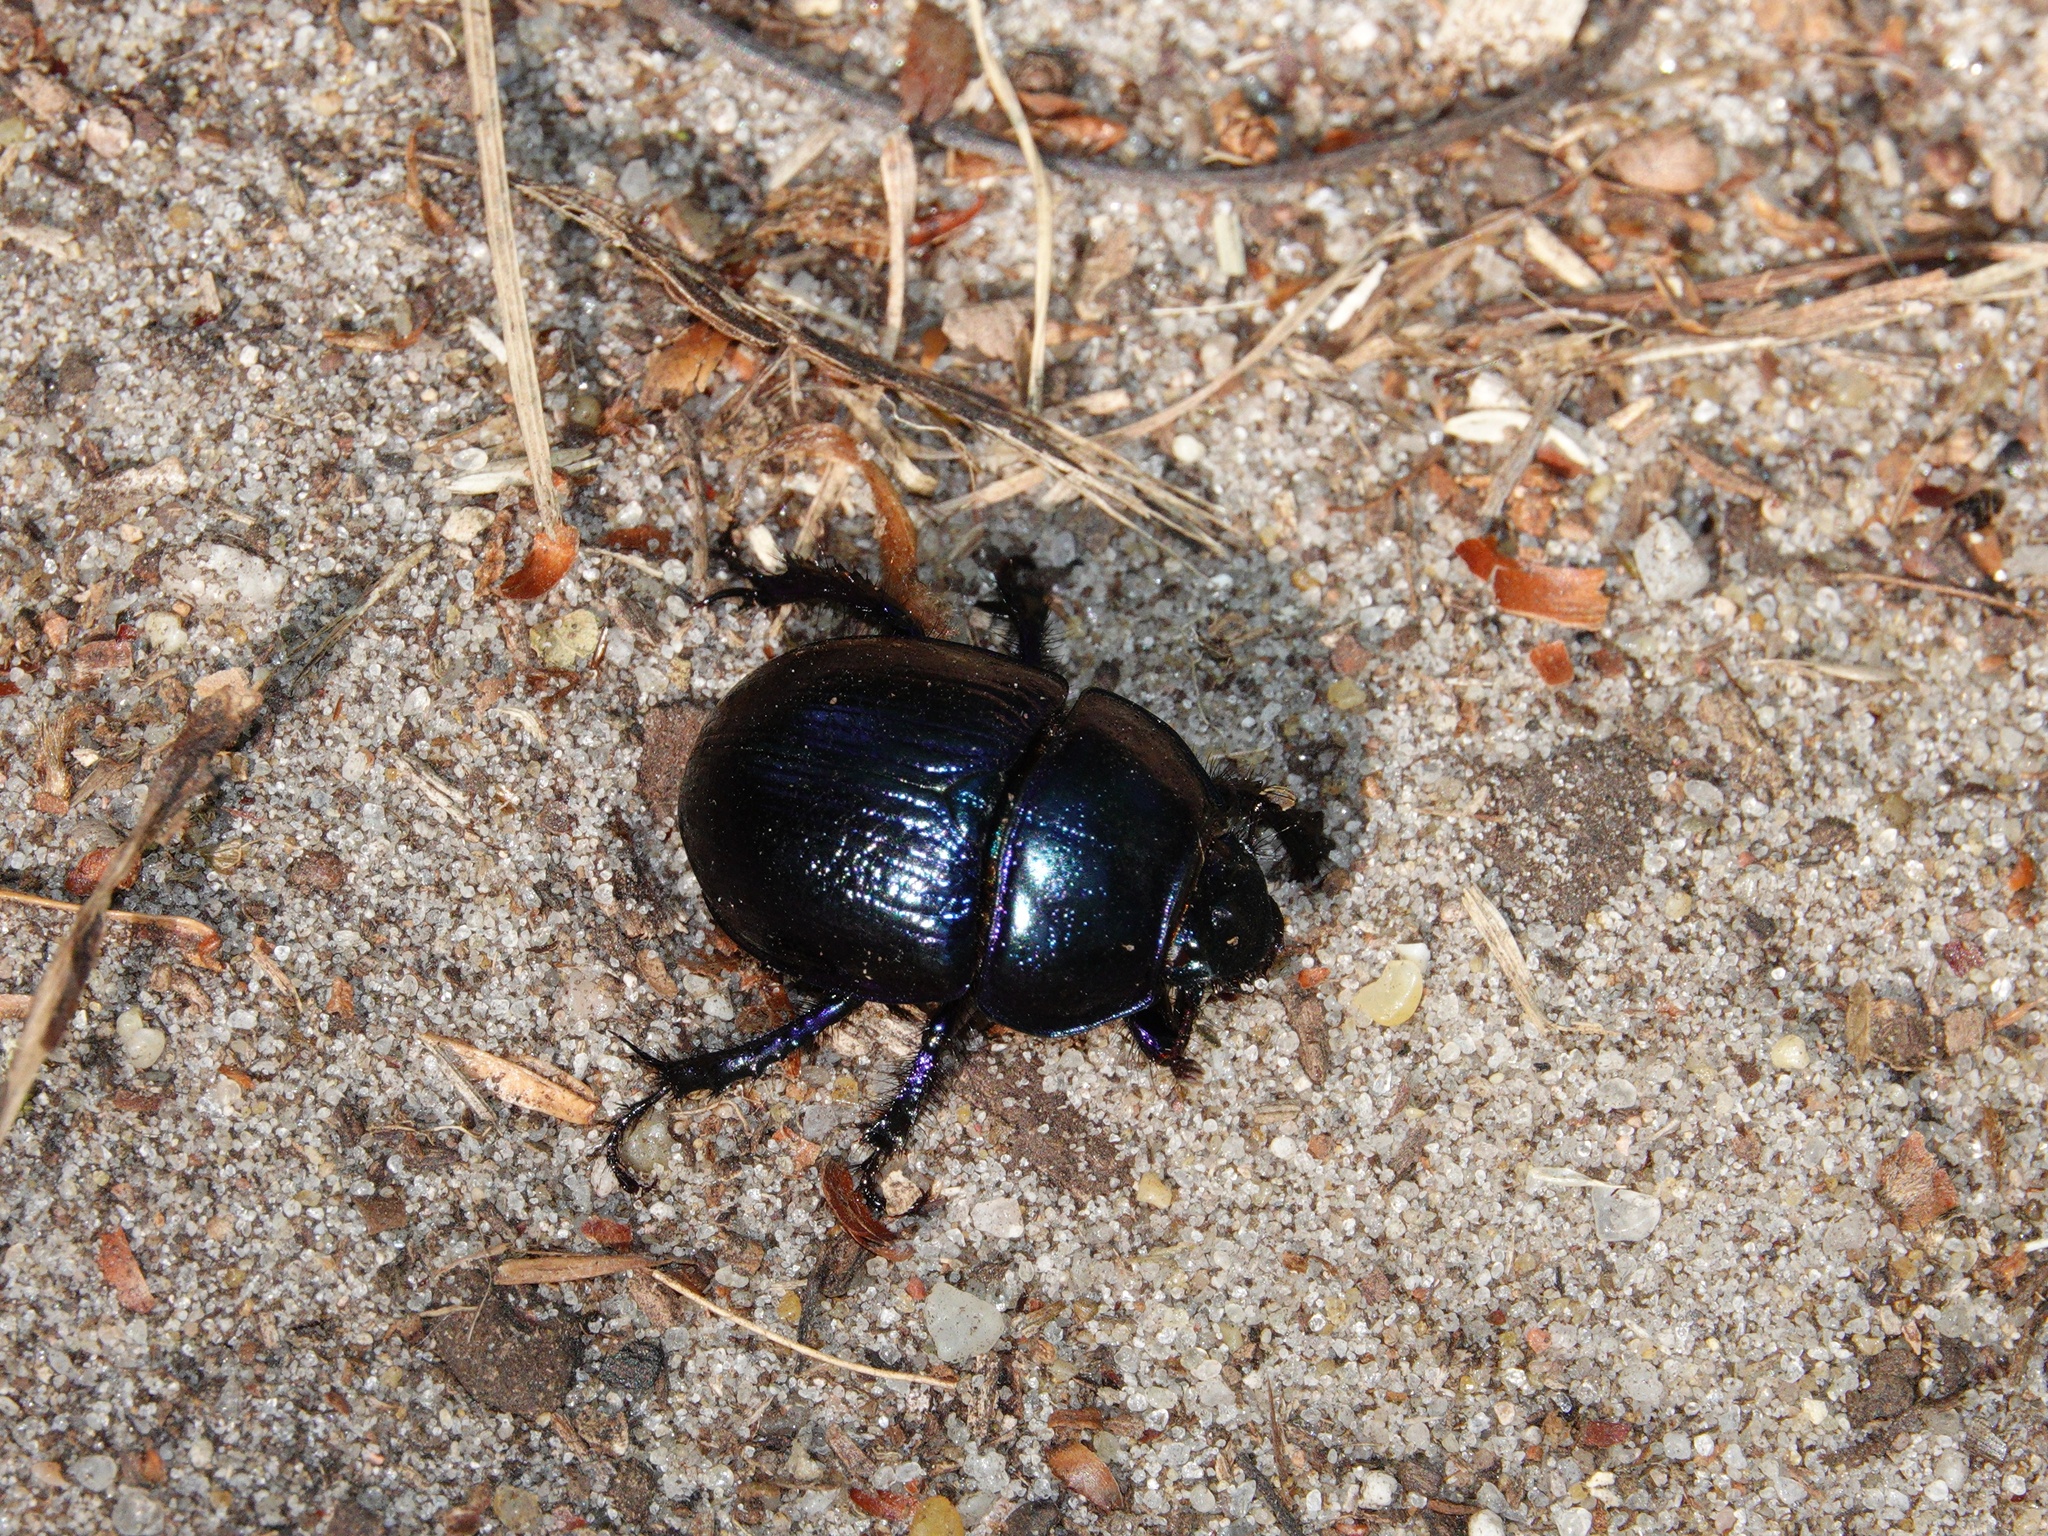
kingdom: Animalia
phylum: Arthropoda
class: Insecta
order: Coleoptera
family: Geotrupidae
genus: Anoplotrupes
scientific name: Anoplotrupes stercorosus
